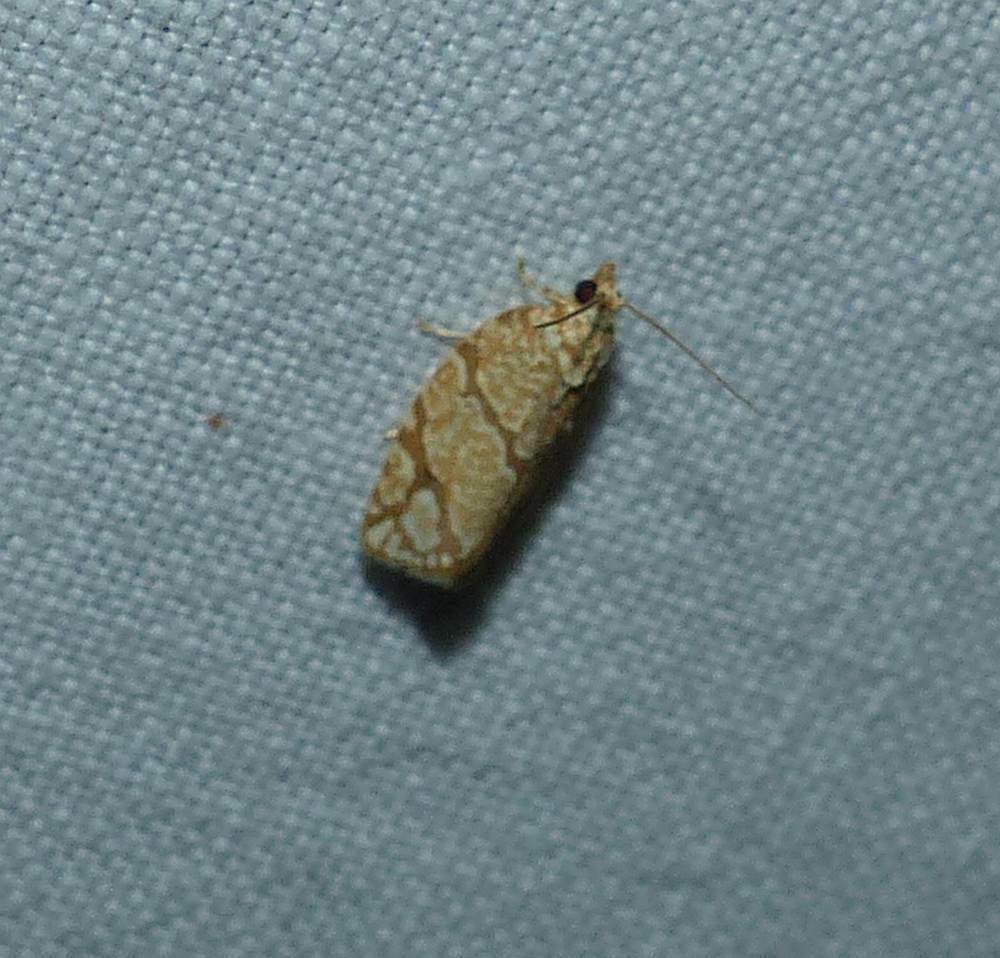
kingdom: Animalia
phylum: Arthropoda
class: Insecta
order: Lepidoptera
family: Tortricidae
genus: Argyrotaenia
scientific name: Argyrotaenia quercifoliana
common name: Yellow-winged oak leafroller moth
